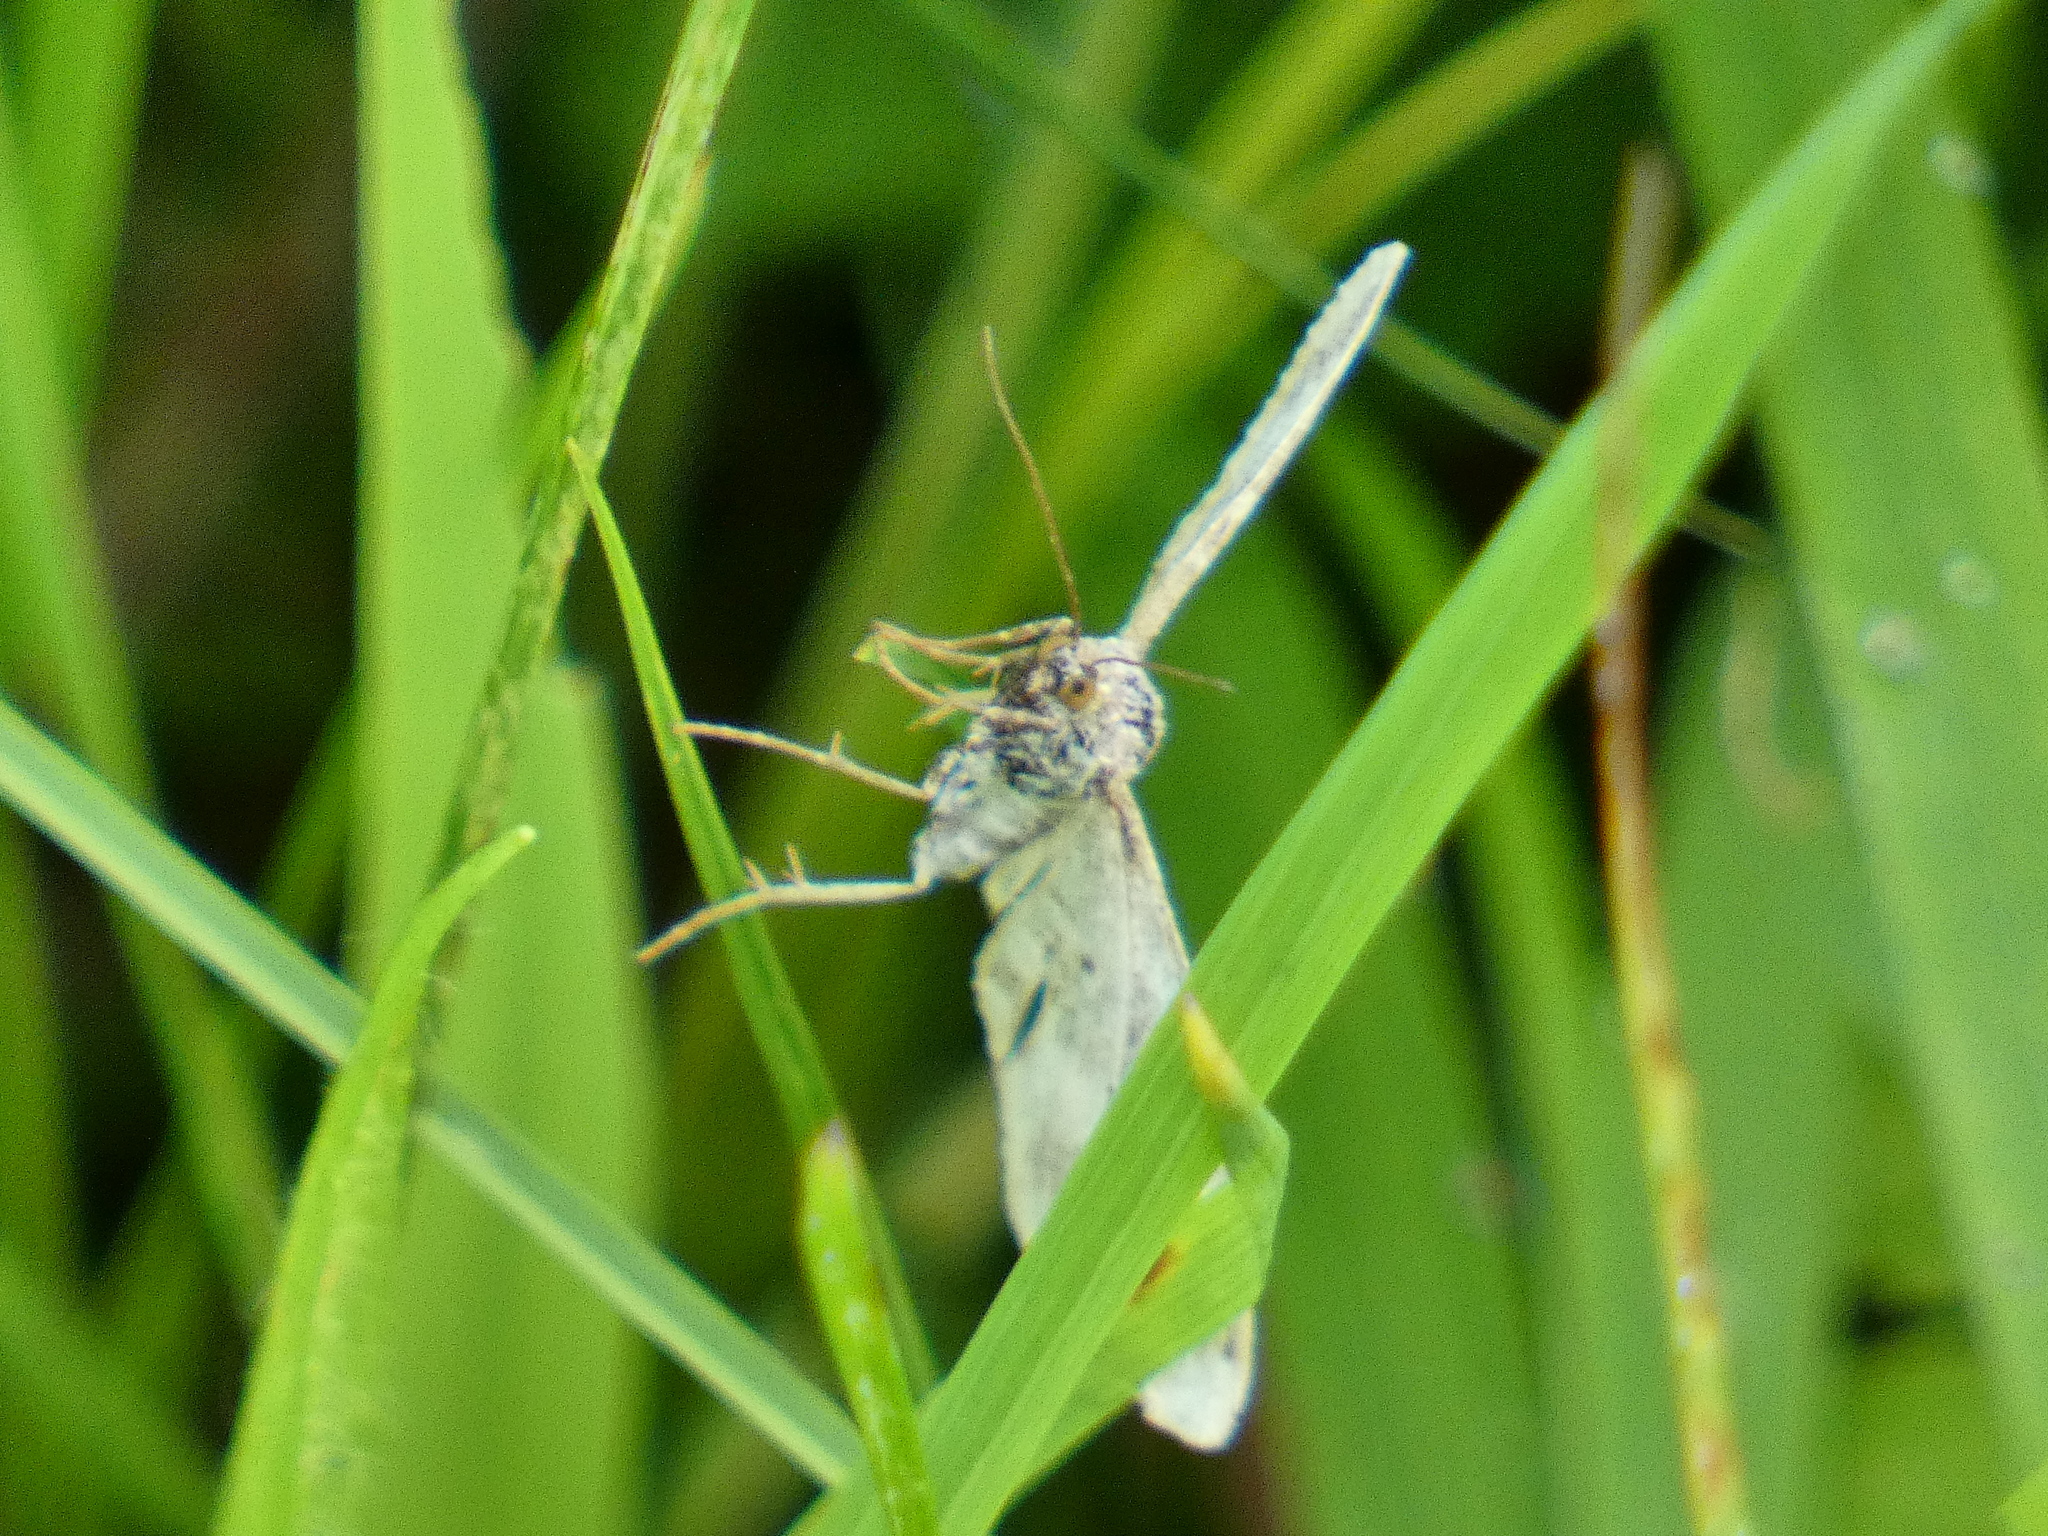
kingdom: Animalia
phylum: Arthropoda
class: Insecta
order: Lepidoptera
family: Geometridae
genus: Epirrhoe
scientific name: Epirrhoe alternata
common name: Common carpet
